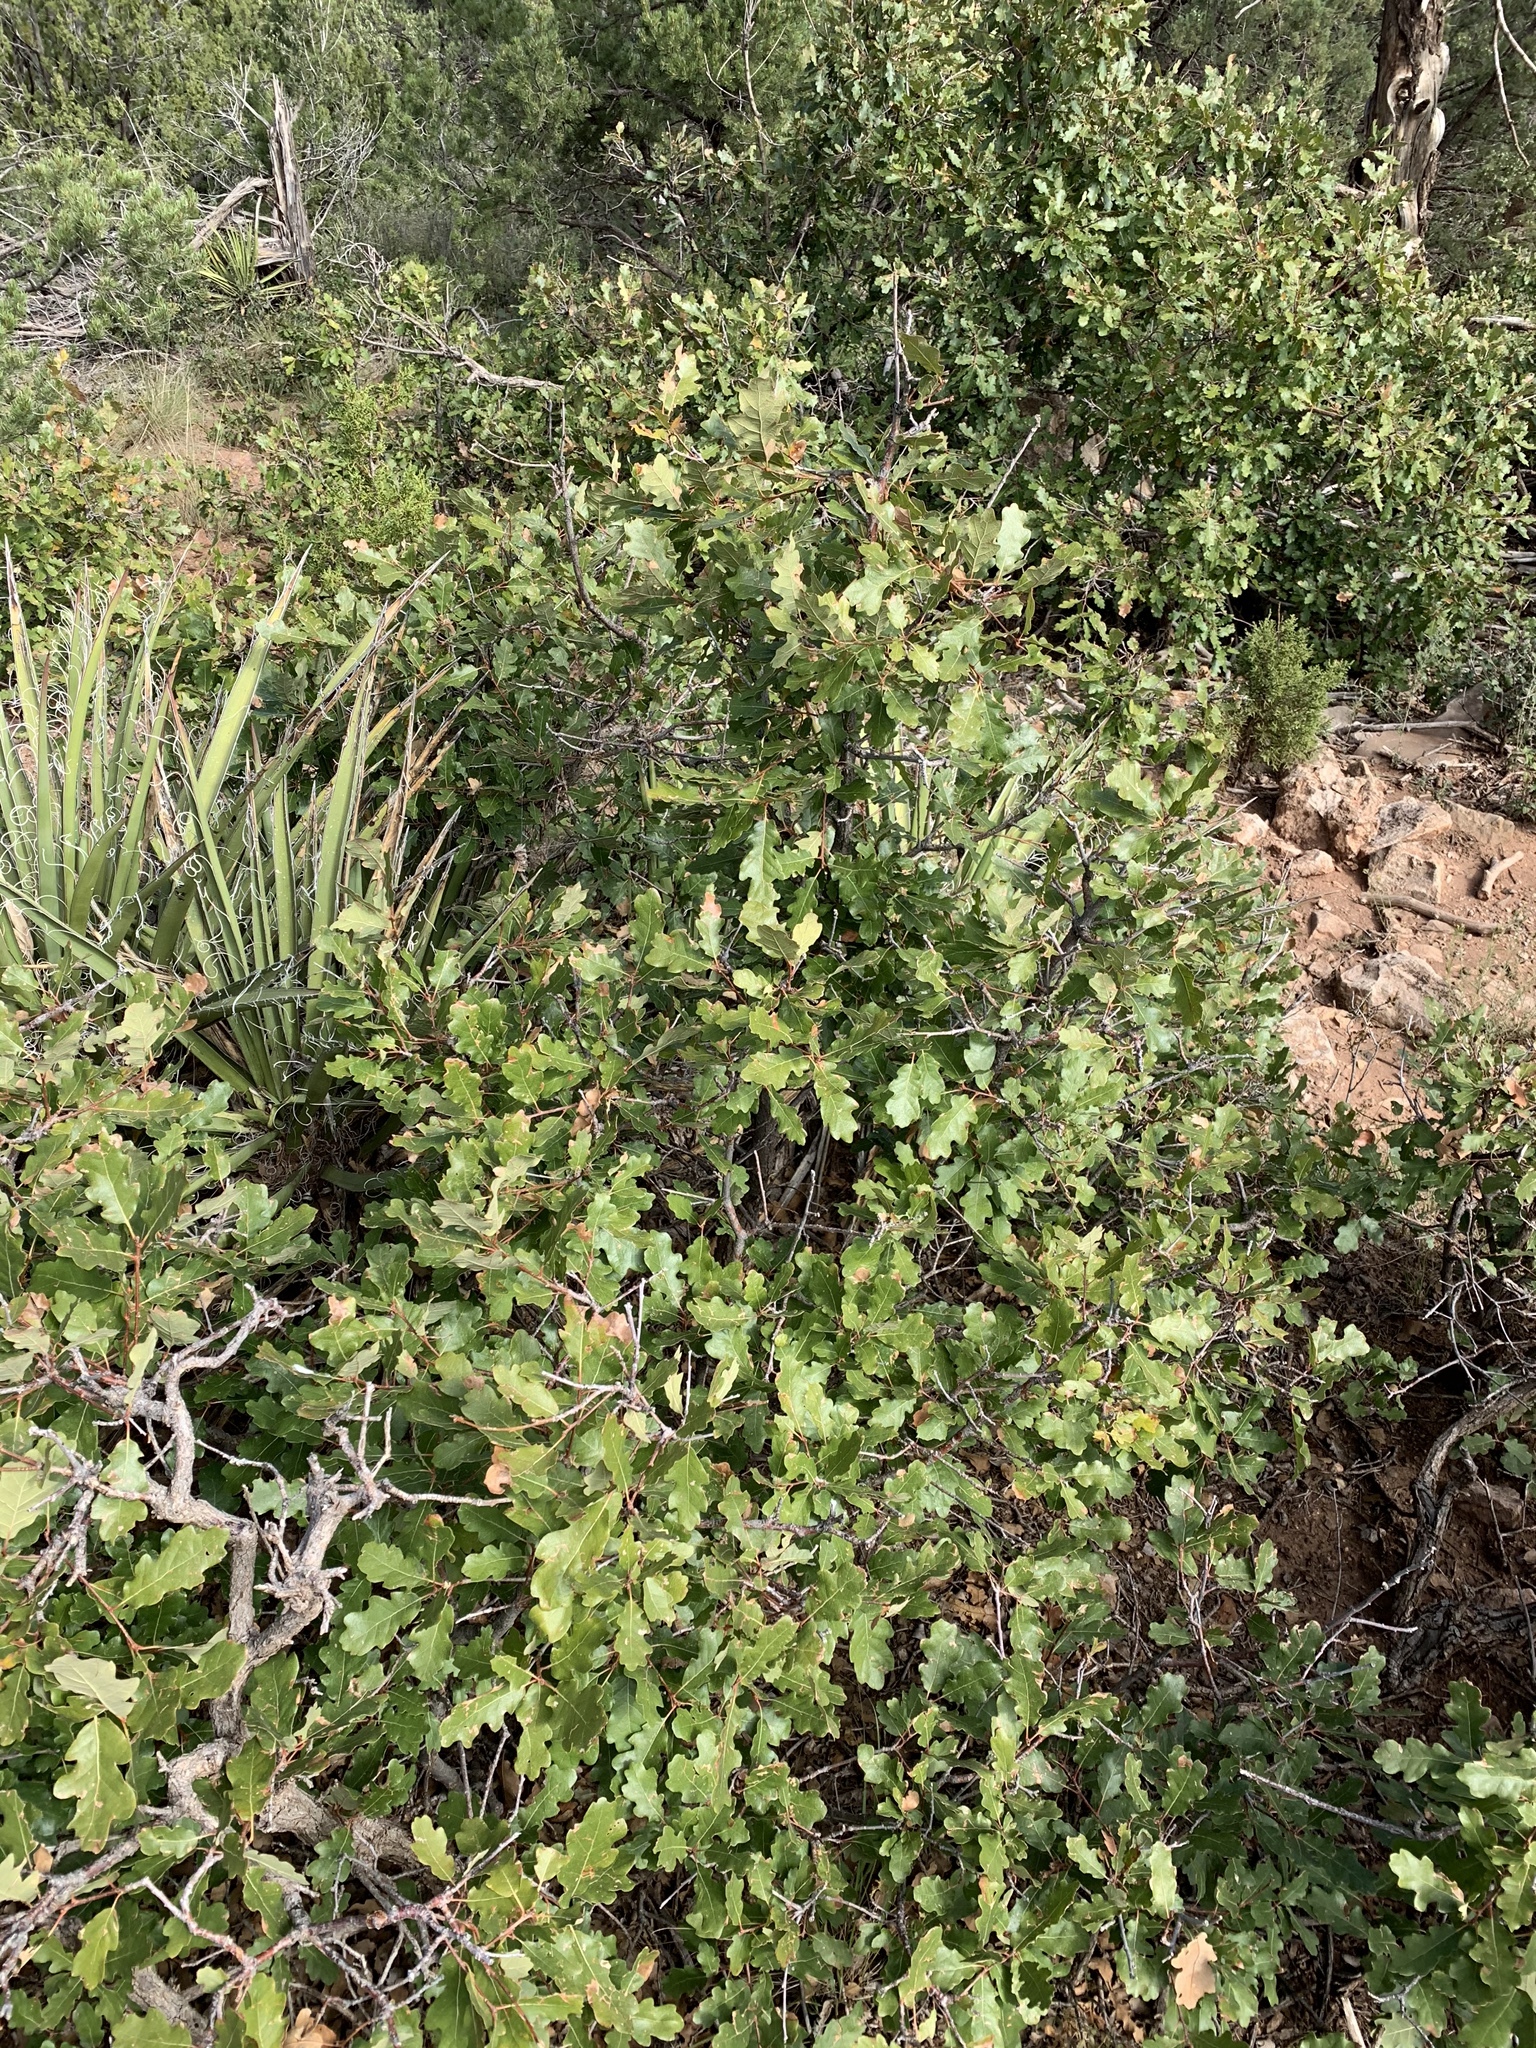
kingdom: Plantae
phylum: Tracheophyta
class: Magnoliopsida
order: Fagales
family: Fagaceae
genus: Quercus
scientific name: Quercus undulata
